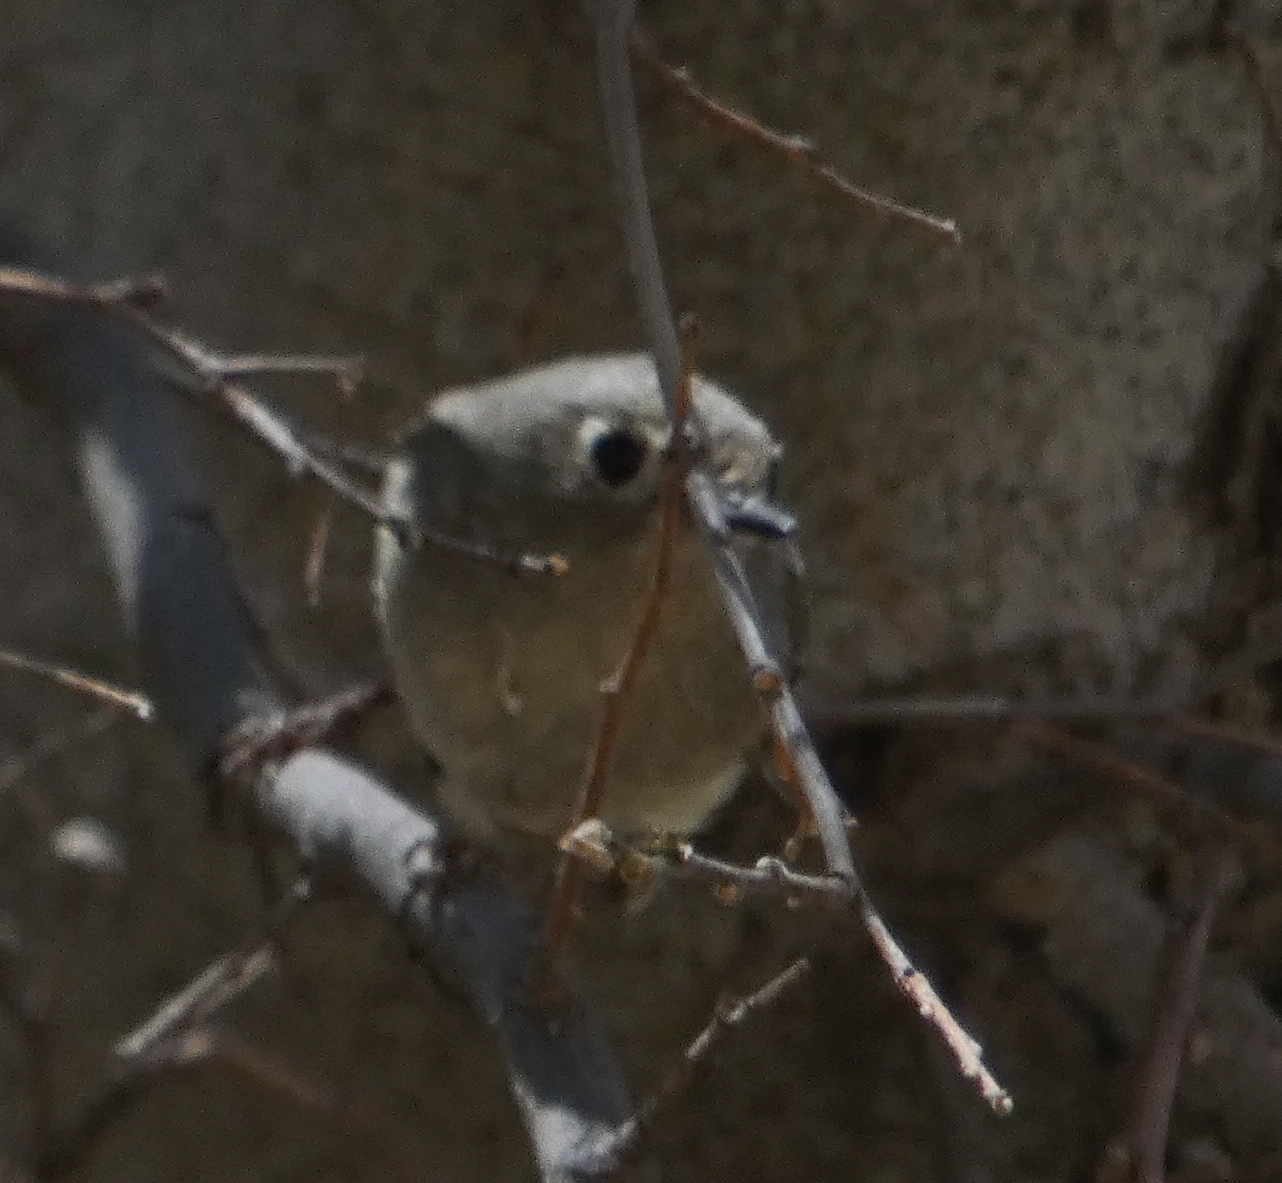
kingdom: Animalia
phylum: Chordata
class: Aves
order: Passeriformes
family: Regulidae
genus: Regulus
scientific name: Regulus calendula
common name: Ruby-crowned kinglet
